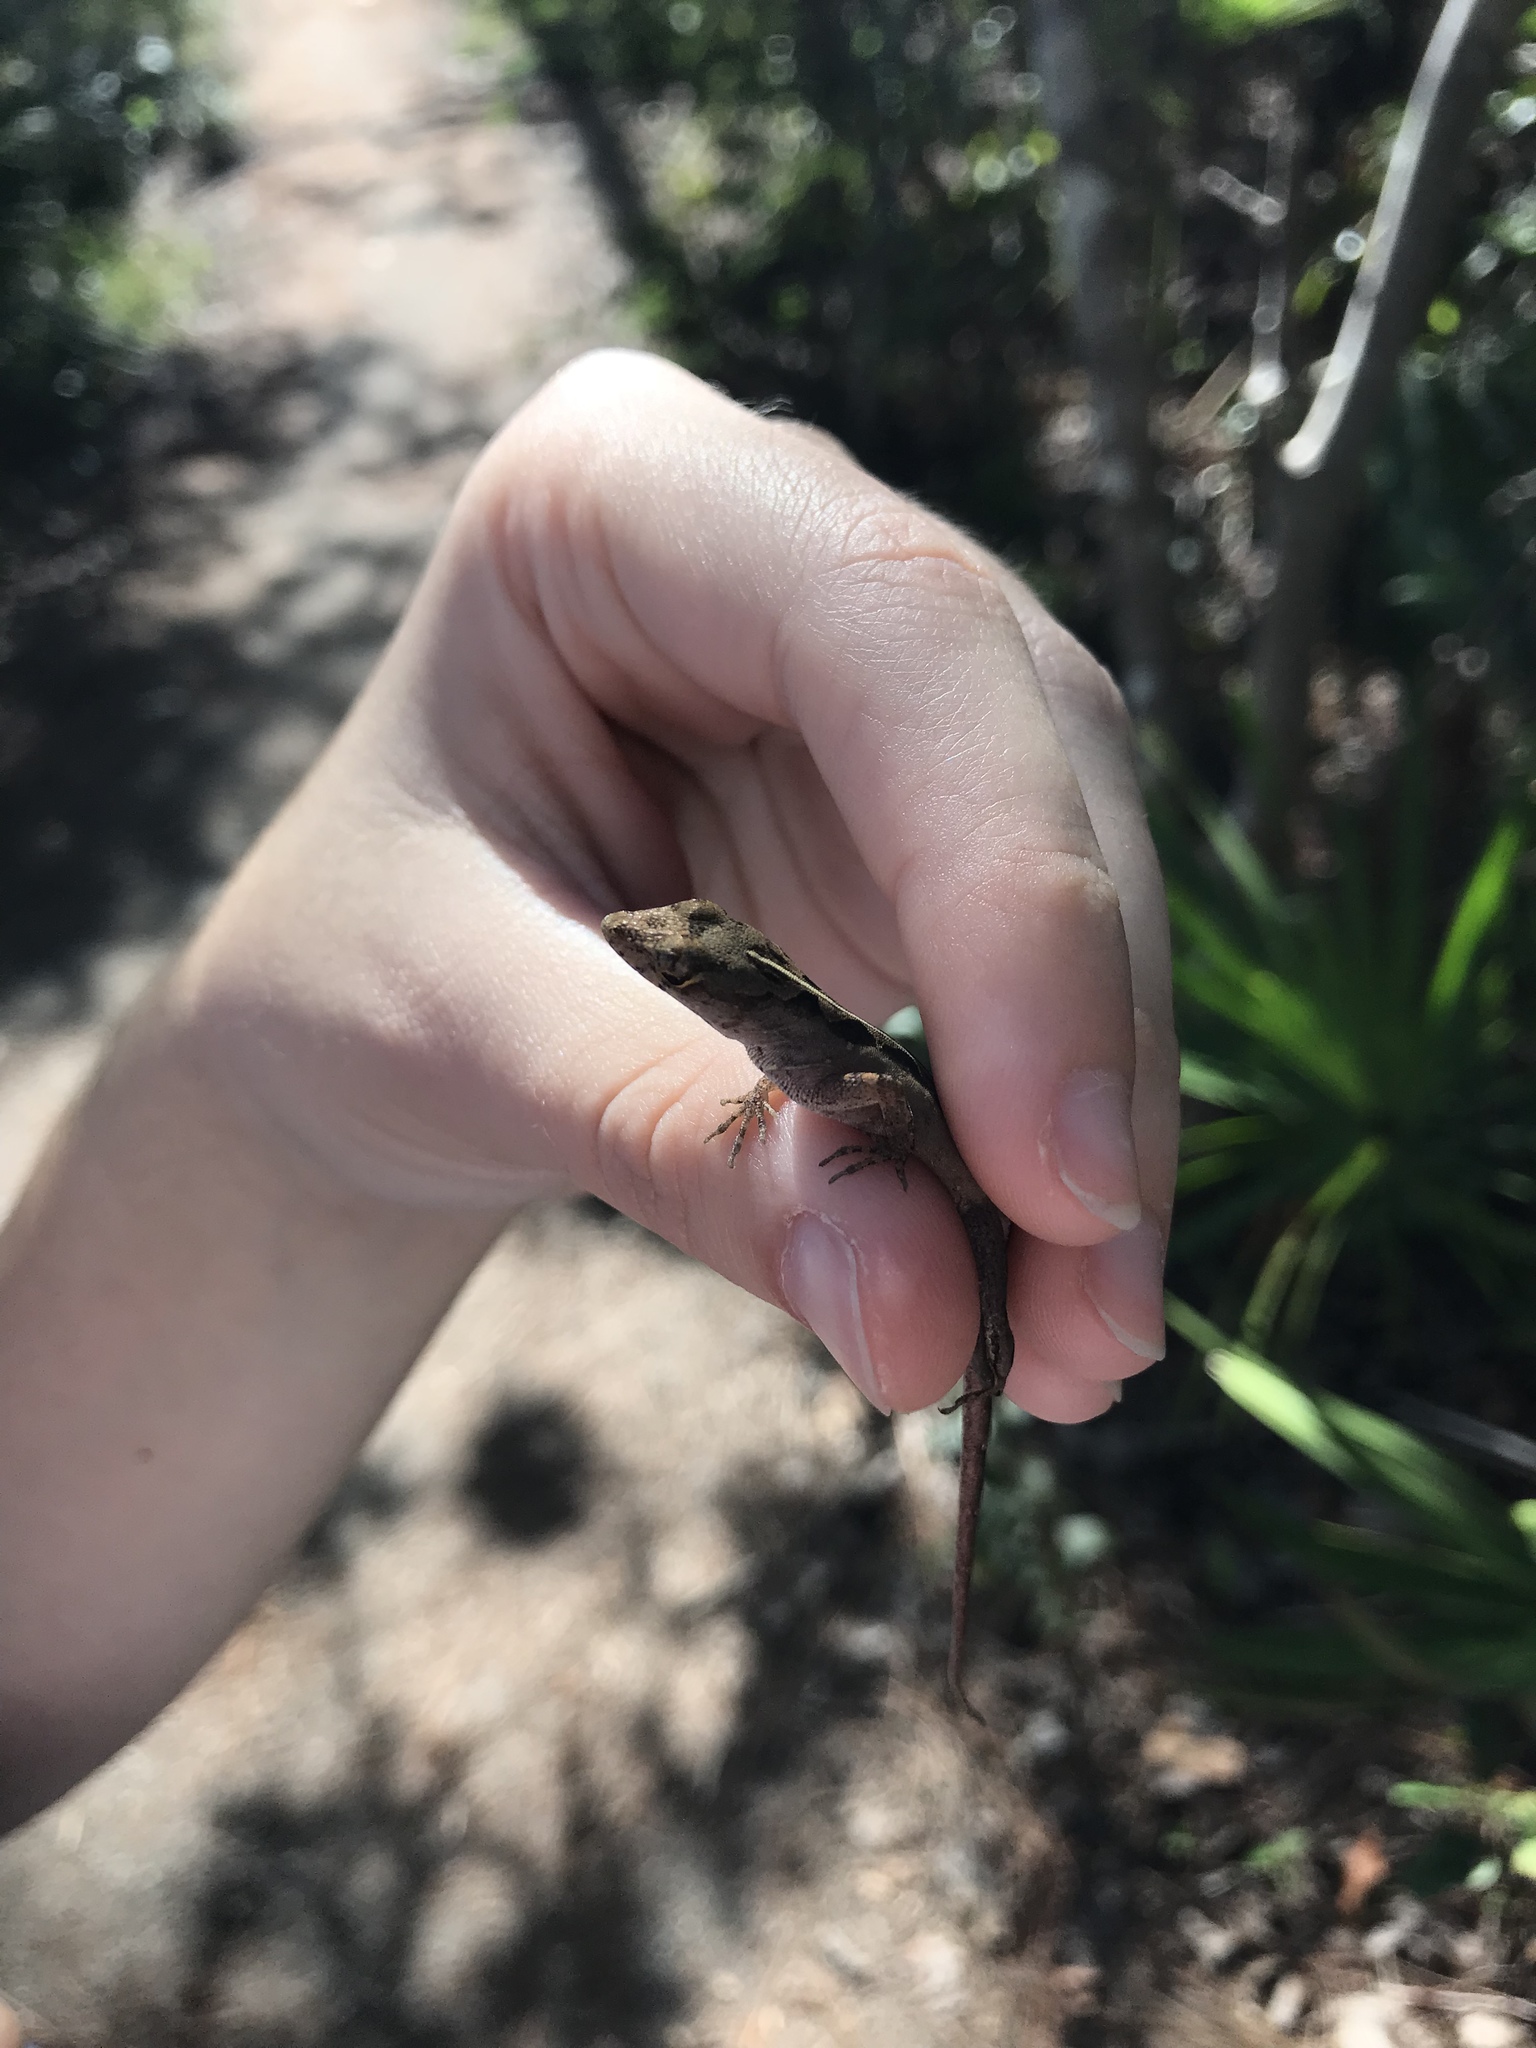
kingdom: Animalia
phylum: Chordata
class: Squamata
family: Dactyloidae
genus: Anolis
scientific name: Anolis sagrei
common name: Brown anole
